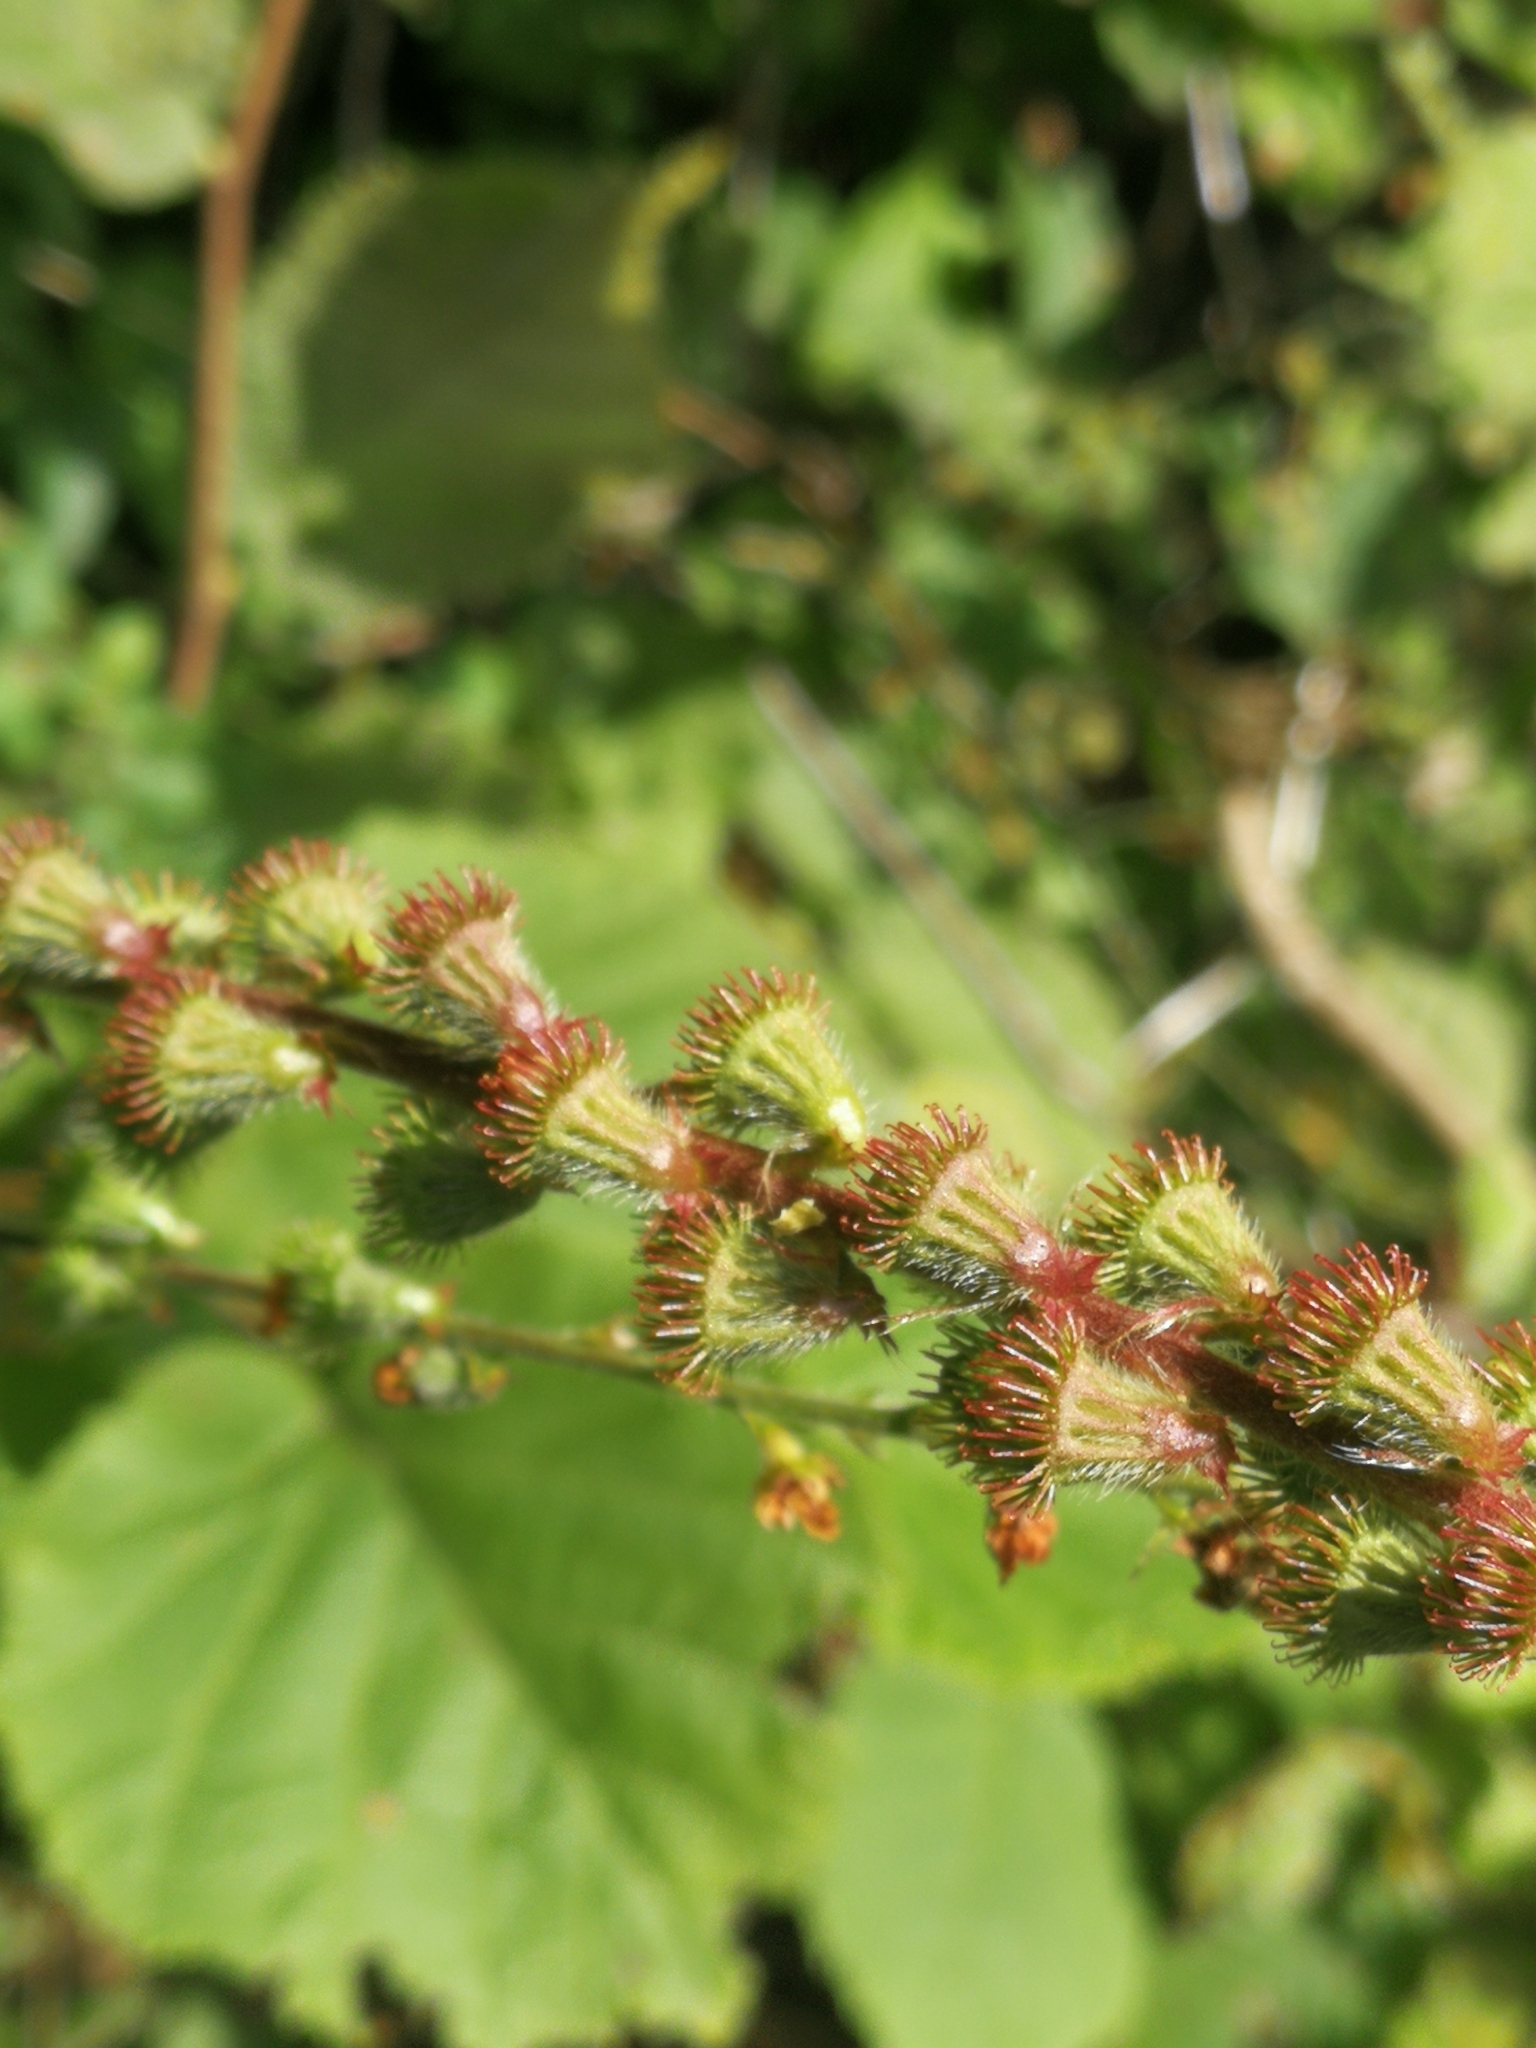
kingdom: Plantae
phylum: Tracheophyta
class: Magnoliopsida
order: Rosales
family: Rosaceae
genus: Agrimonia
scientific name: Agrimonia eupatoria
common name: Agrimony
